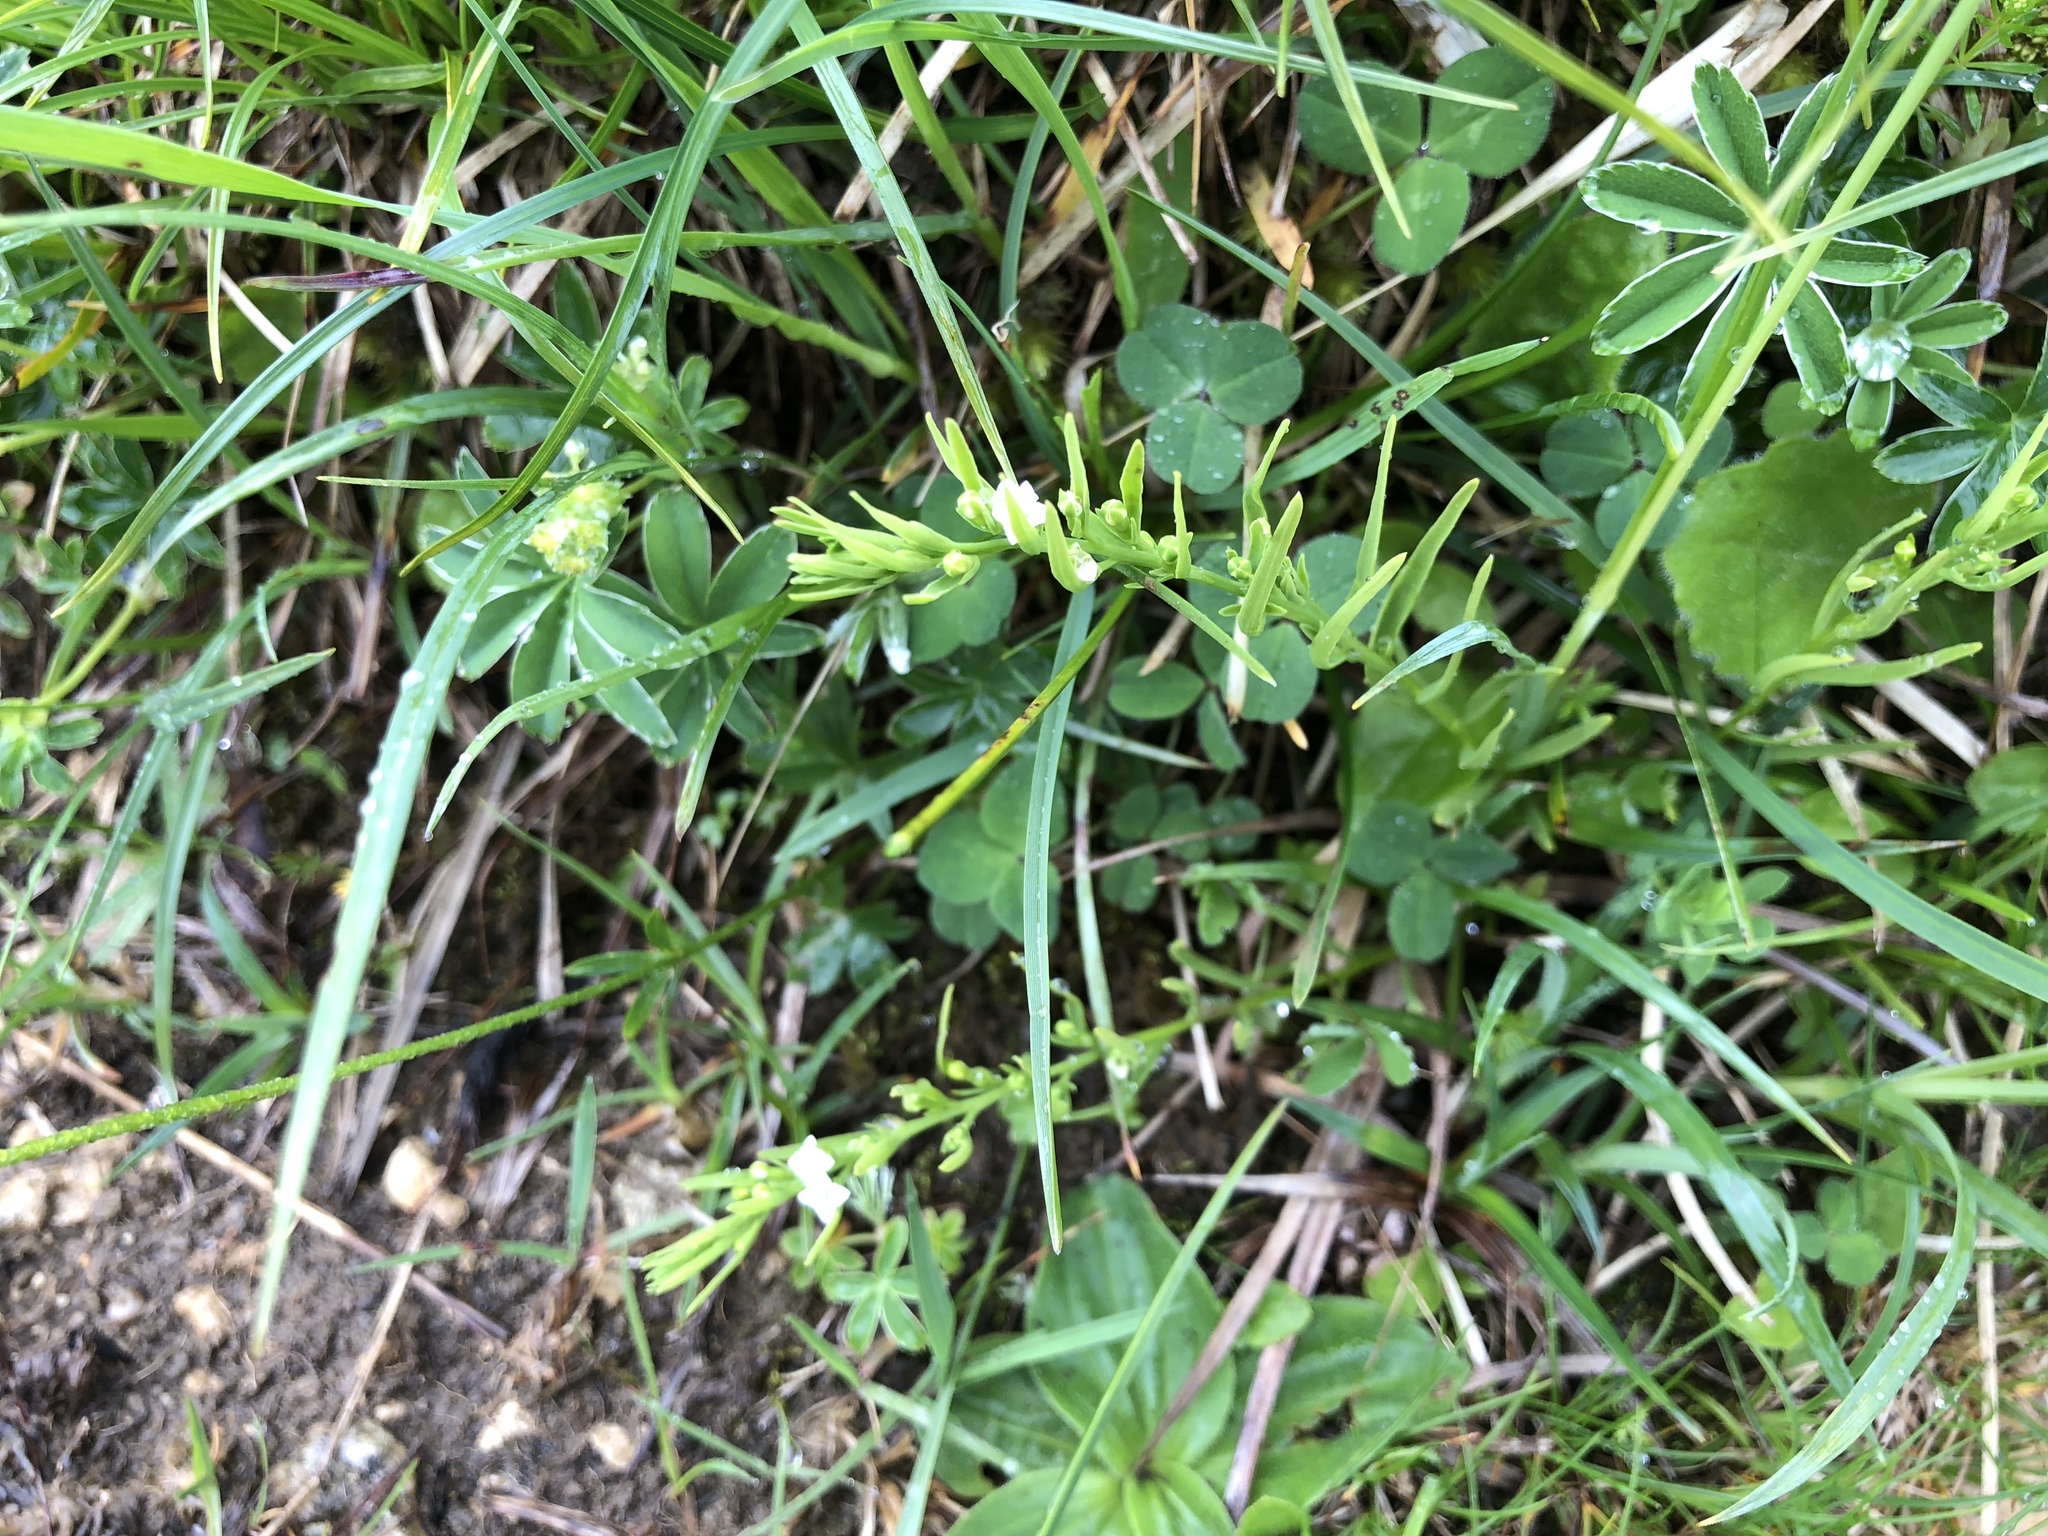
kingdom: Plantae
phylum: Tracheophyta
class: Magnoliopsida
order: Santalales
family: Thesiaceae
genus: Thesium
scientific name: Thesium alpinum
